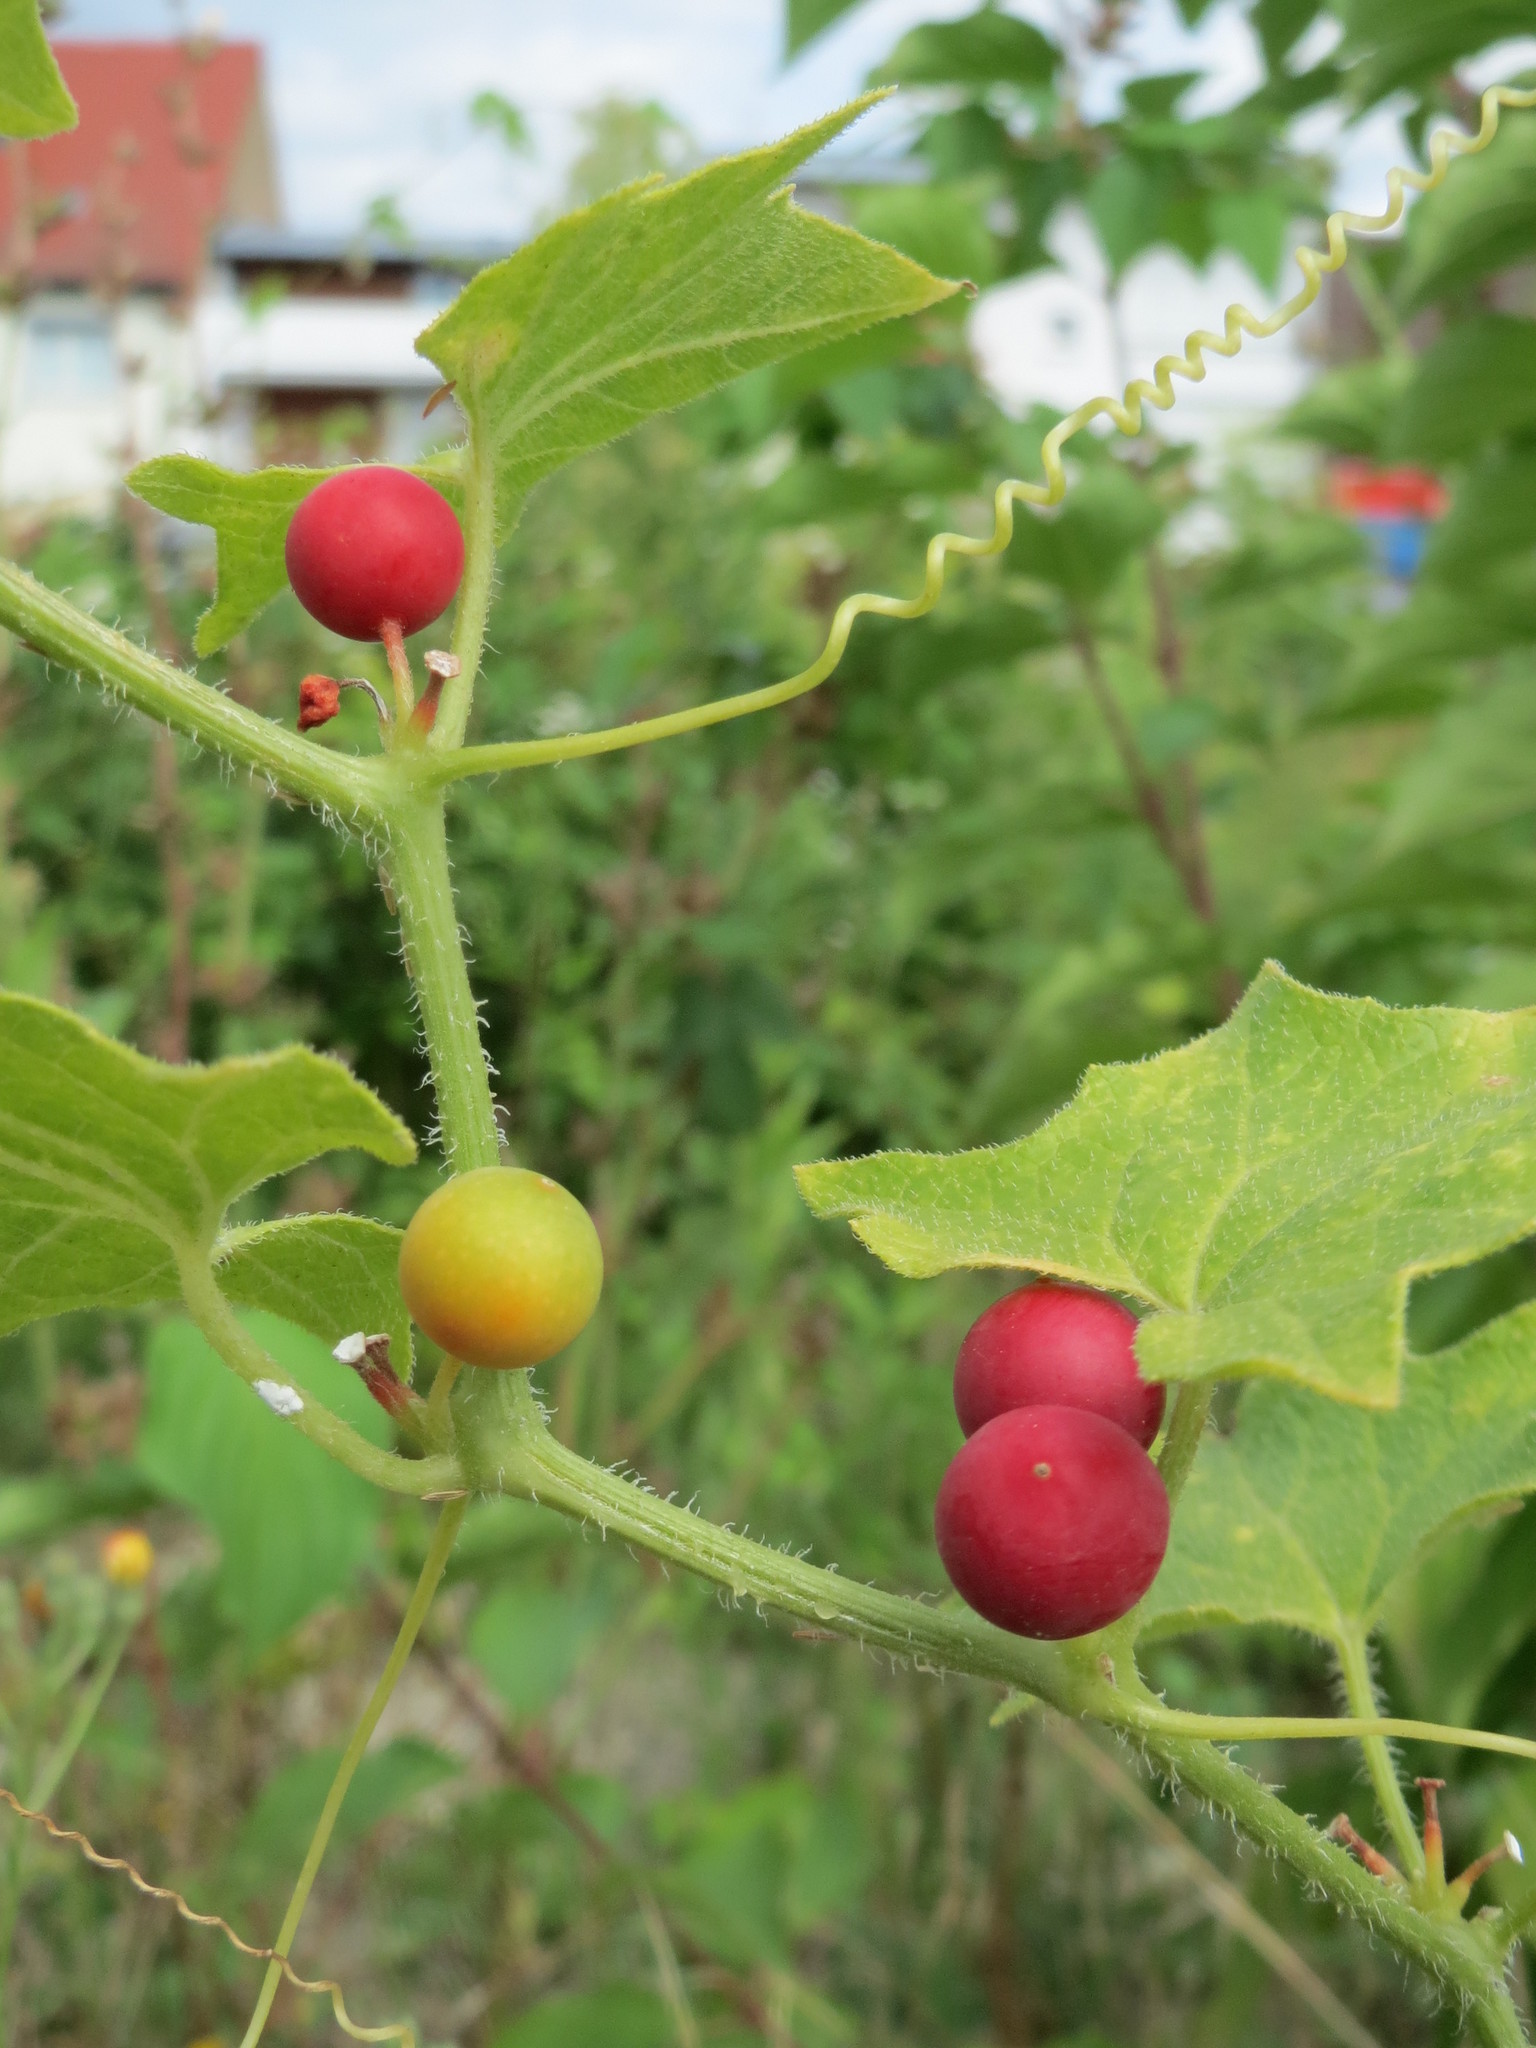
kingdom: Plantae
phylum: Tracheophyta
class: Magnoliopsida
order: Cucurbitales
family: Cucurbitaceae
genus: Bryonia
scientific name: Bryonia dioica
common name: White bryony
